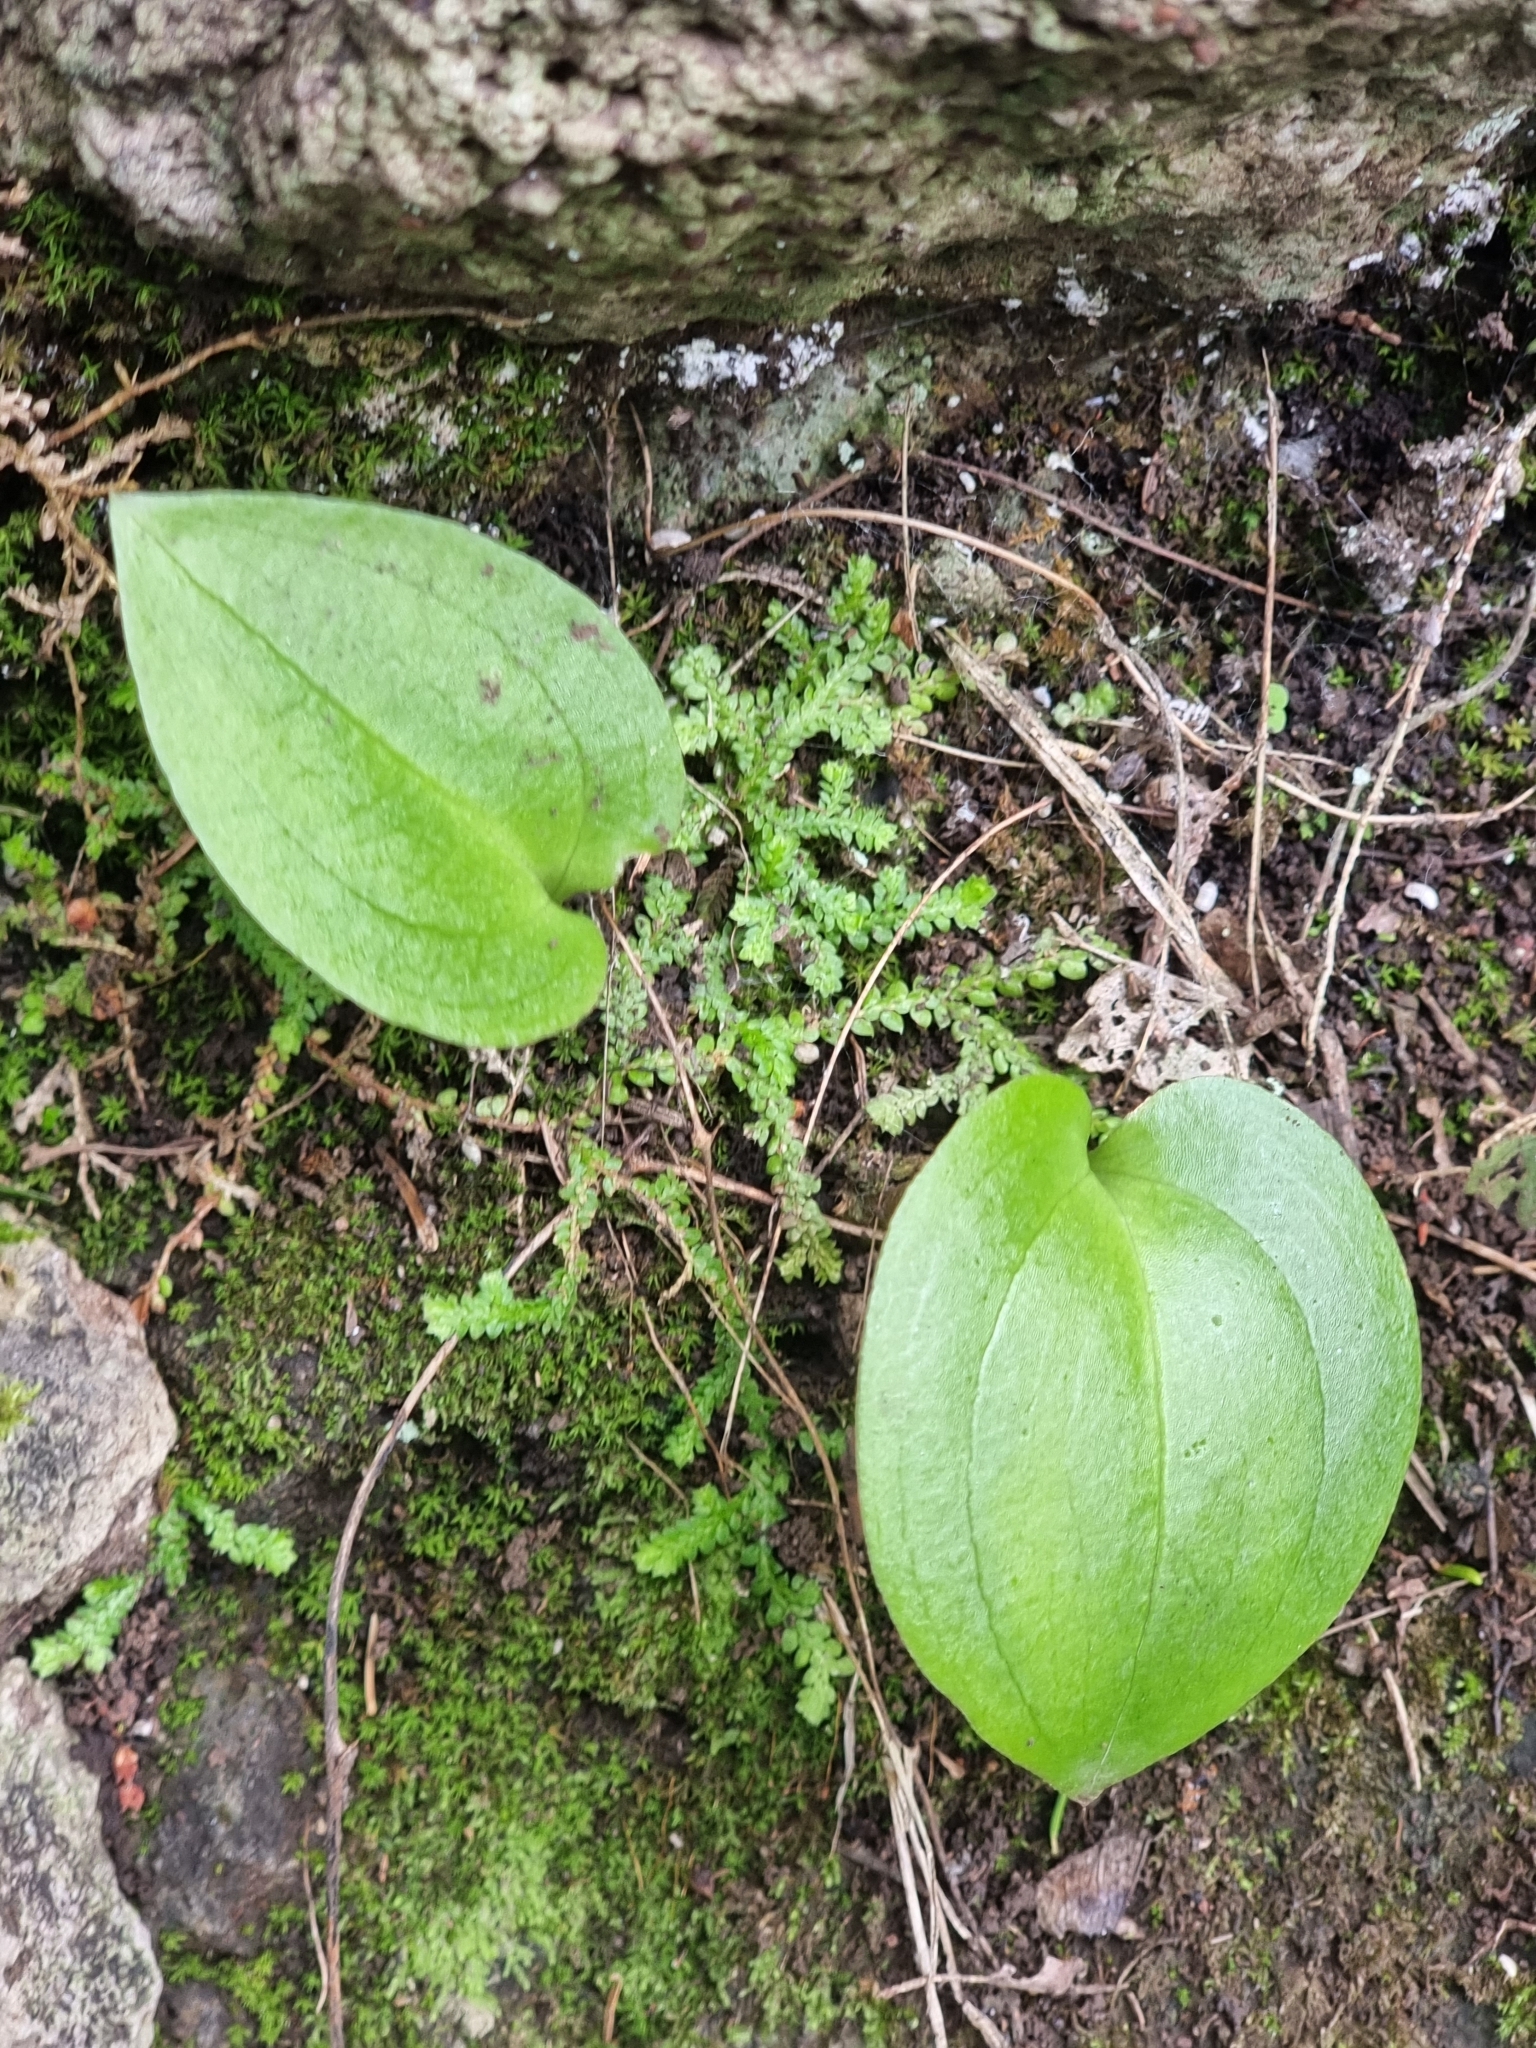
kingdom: Plantae
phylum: Tracheophyta
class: Liliopsida
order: Asparagales
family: Orchidaceae
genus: Gennaria
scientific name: Gennaria diphylla
